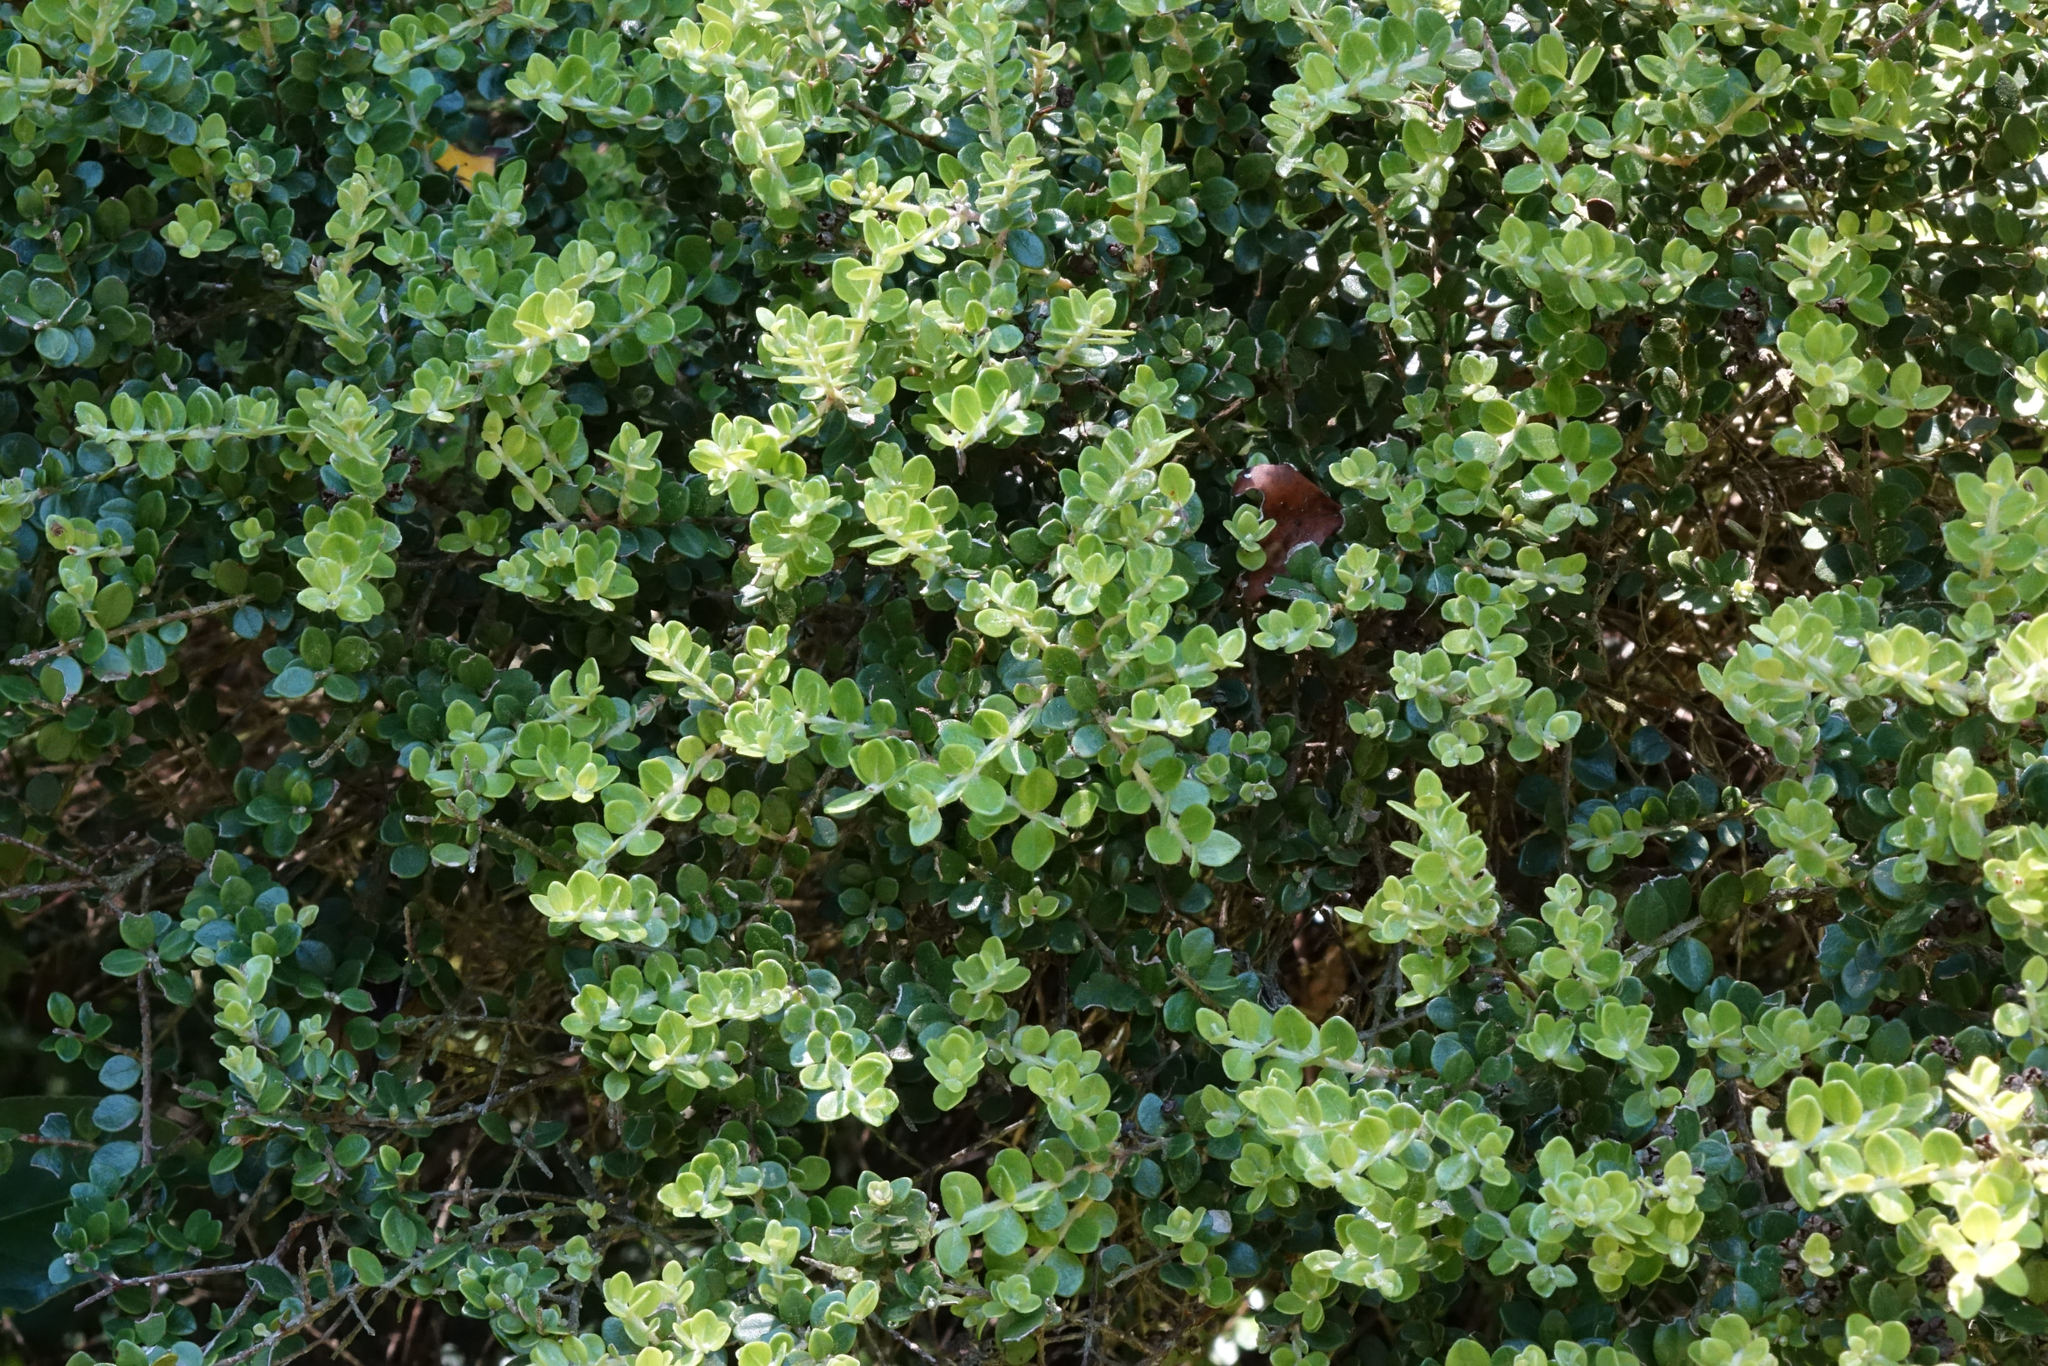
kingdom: Plantae
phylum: Tracheophyta
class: Magnoliopsida
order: Myrtales
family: Myrtaceae
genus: Metrosideros
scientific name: Metrosideros perforata
